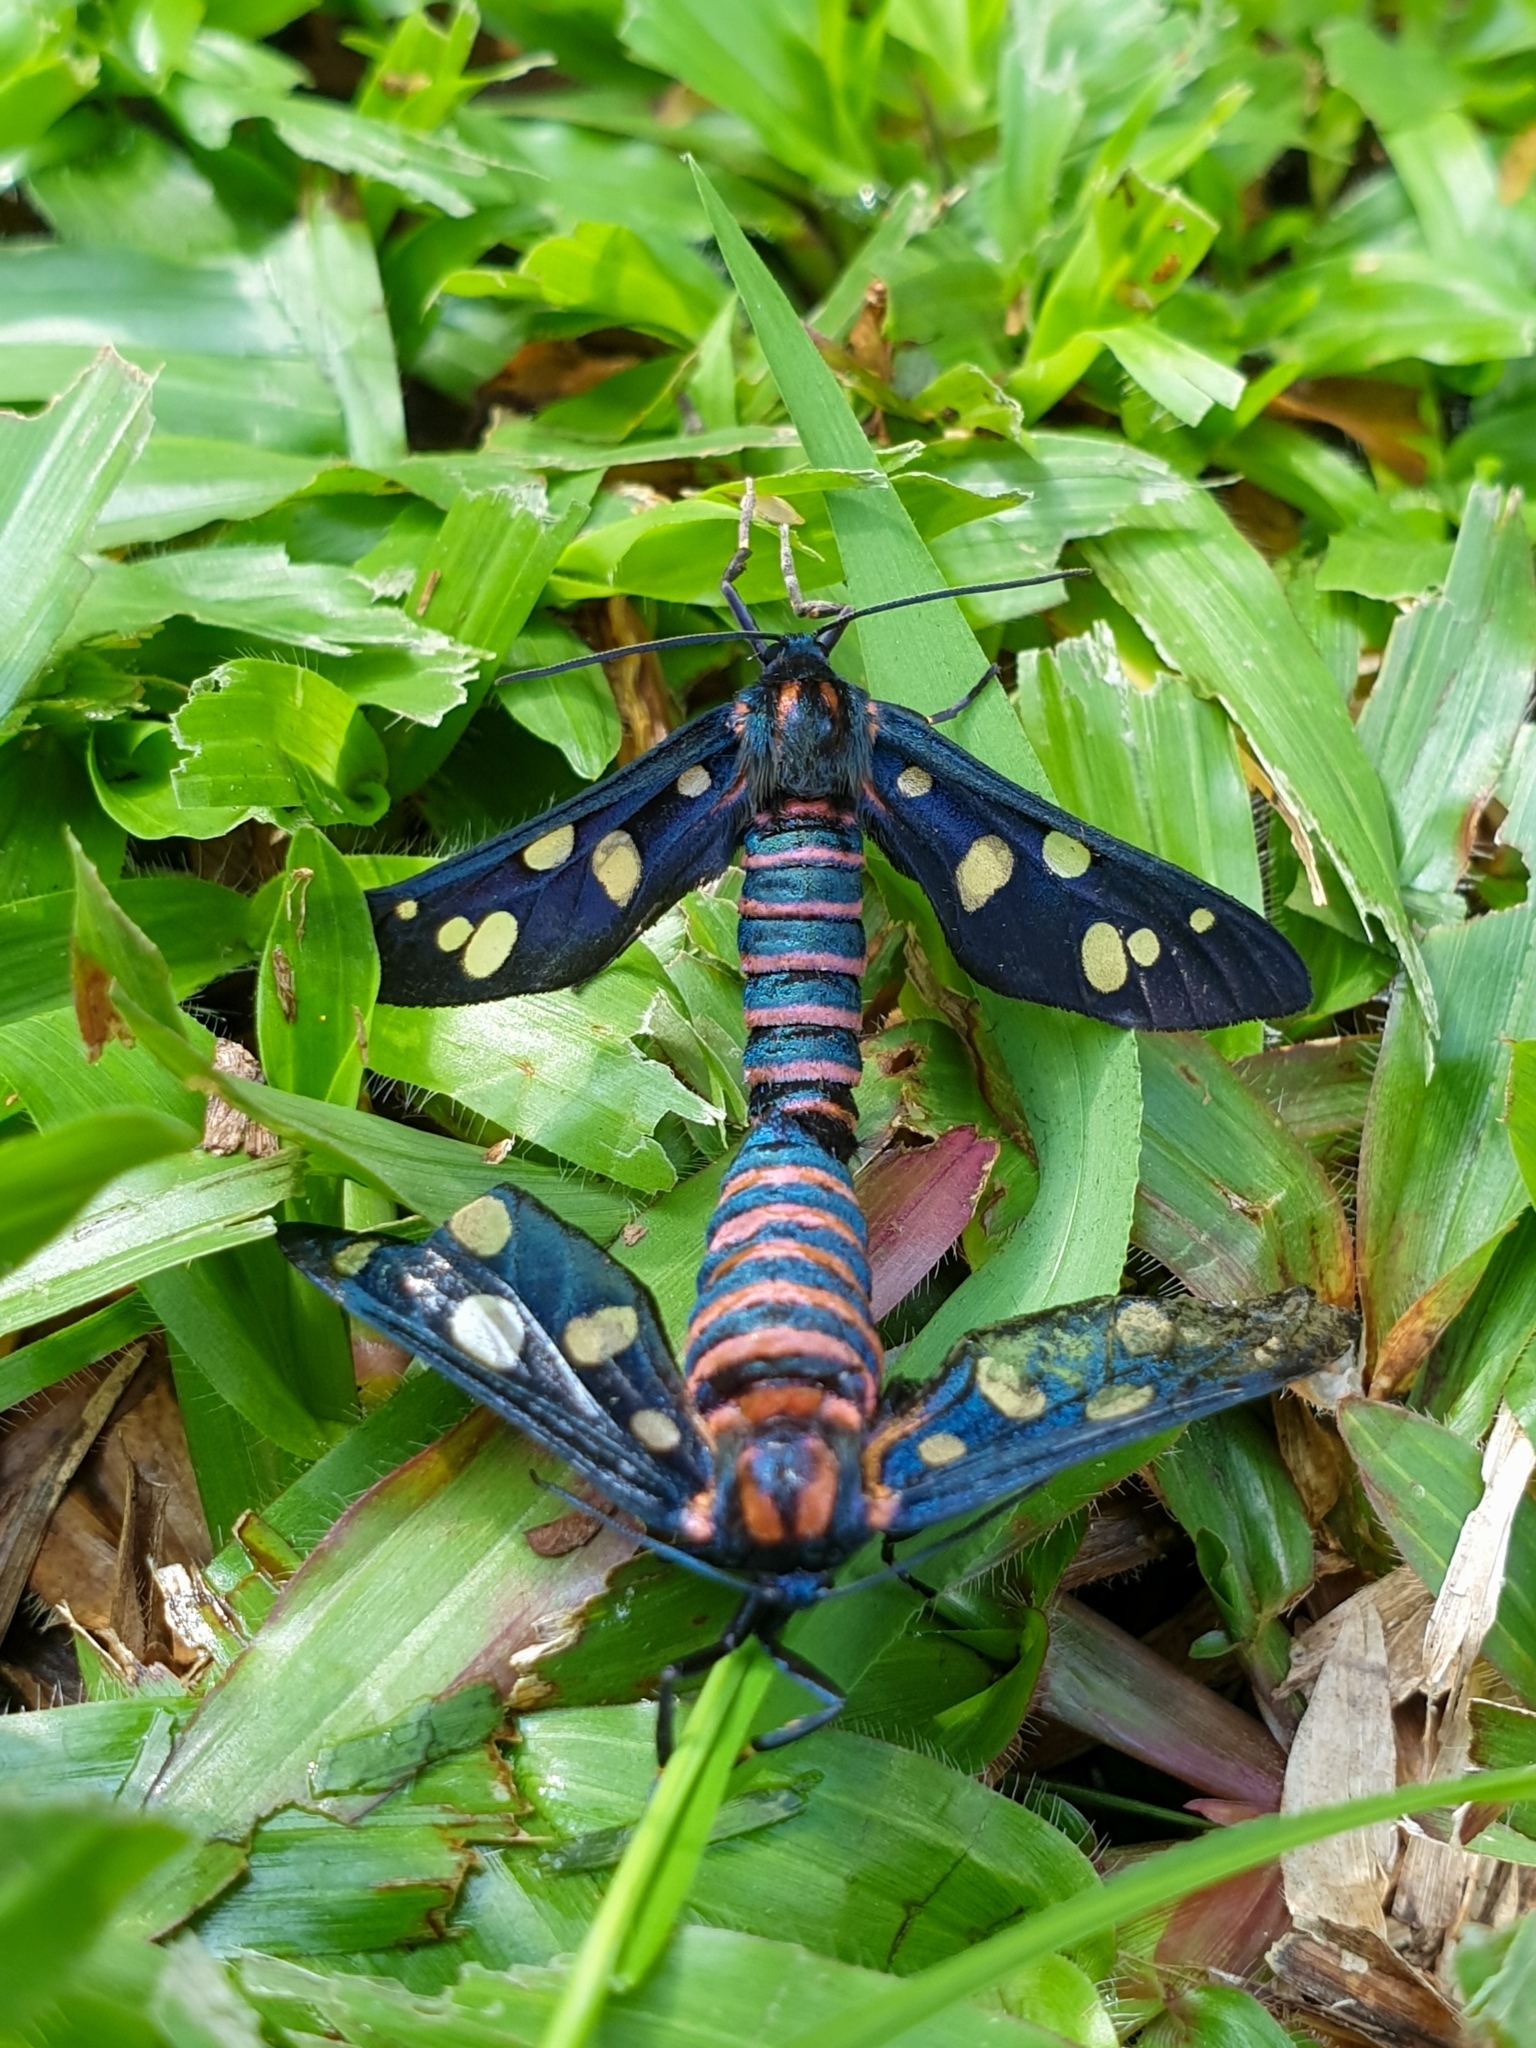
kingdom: Animalia
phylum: Arthropoda
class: Insecta
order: Lepidoptera
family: Erebidae
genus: Amata
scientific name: Amata passalis
